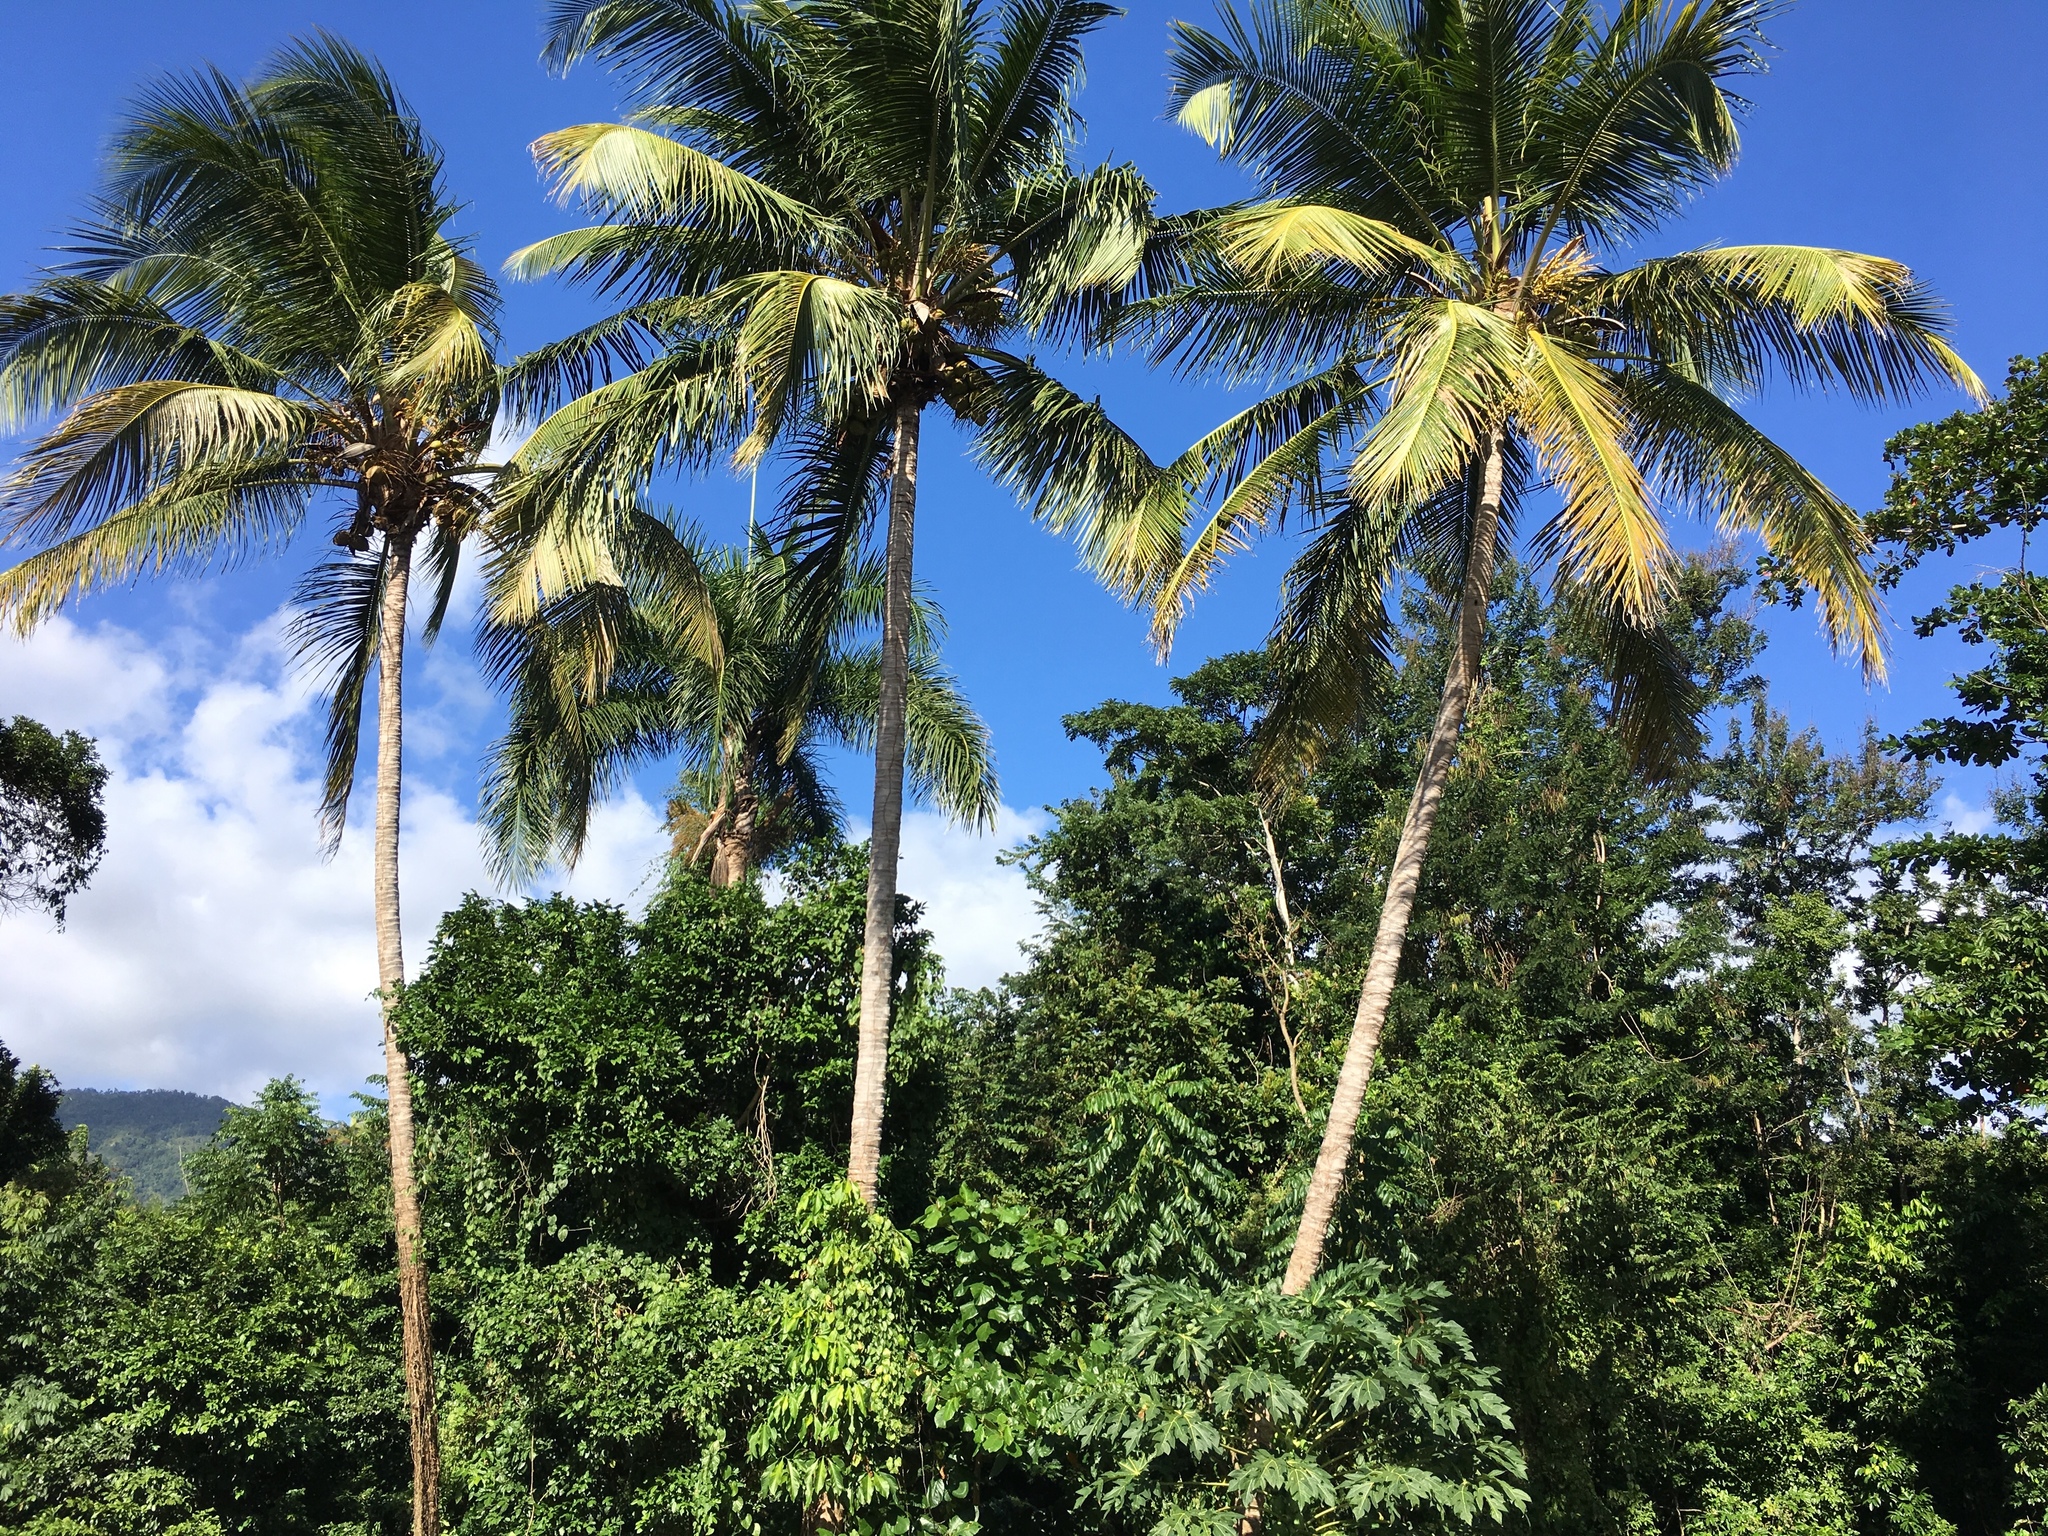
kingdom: Plantae
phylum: Tracheophyta
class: Liliopsida
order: Arecales
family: Arecaceae
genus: Cocos
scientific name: Cocos nucifera
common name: Coconut palm
